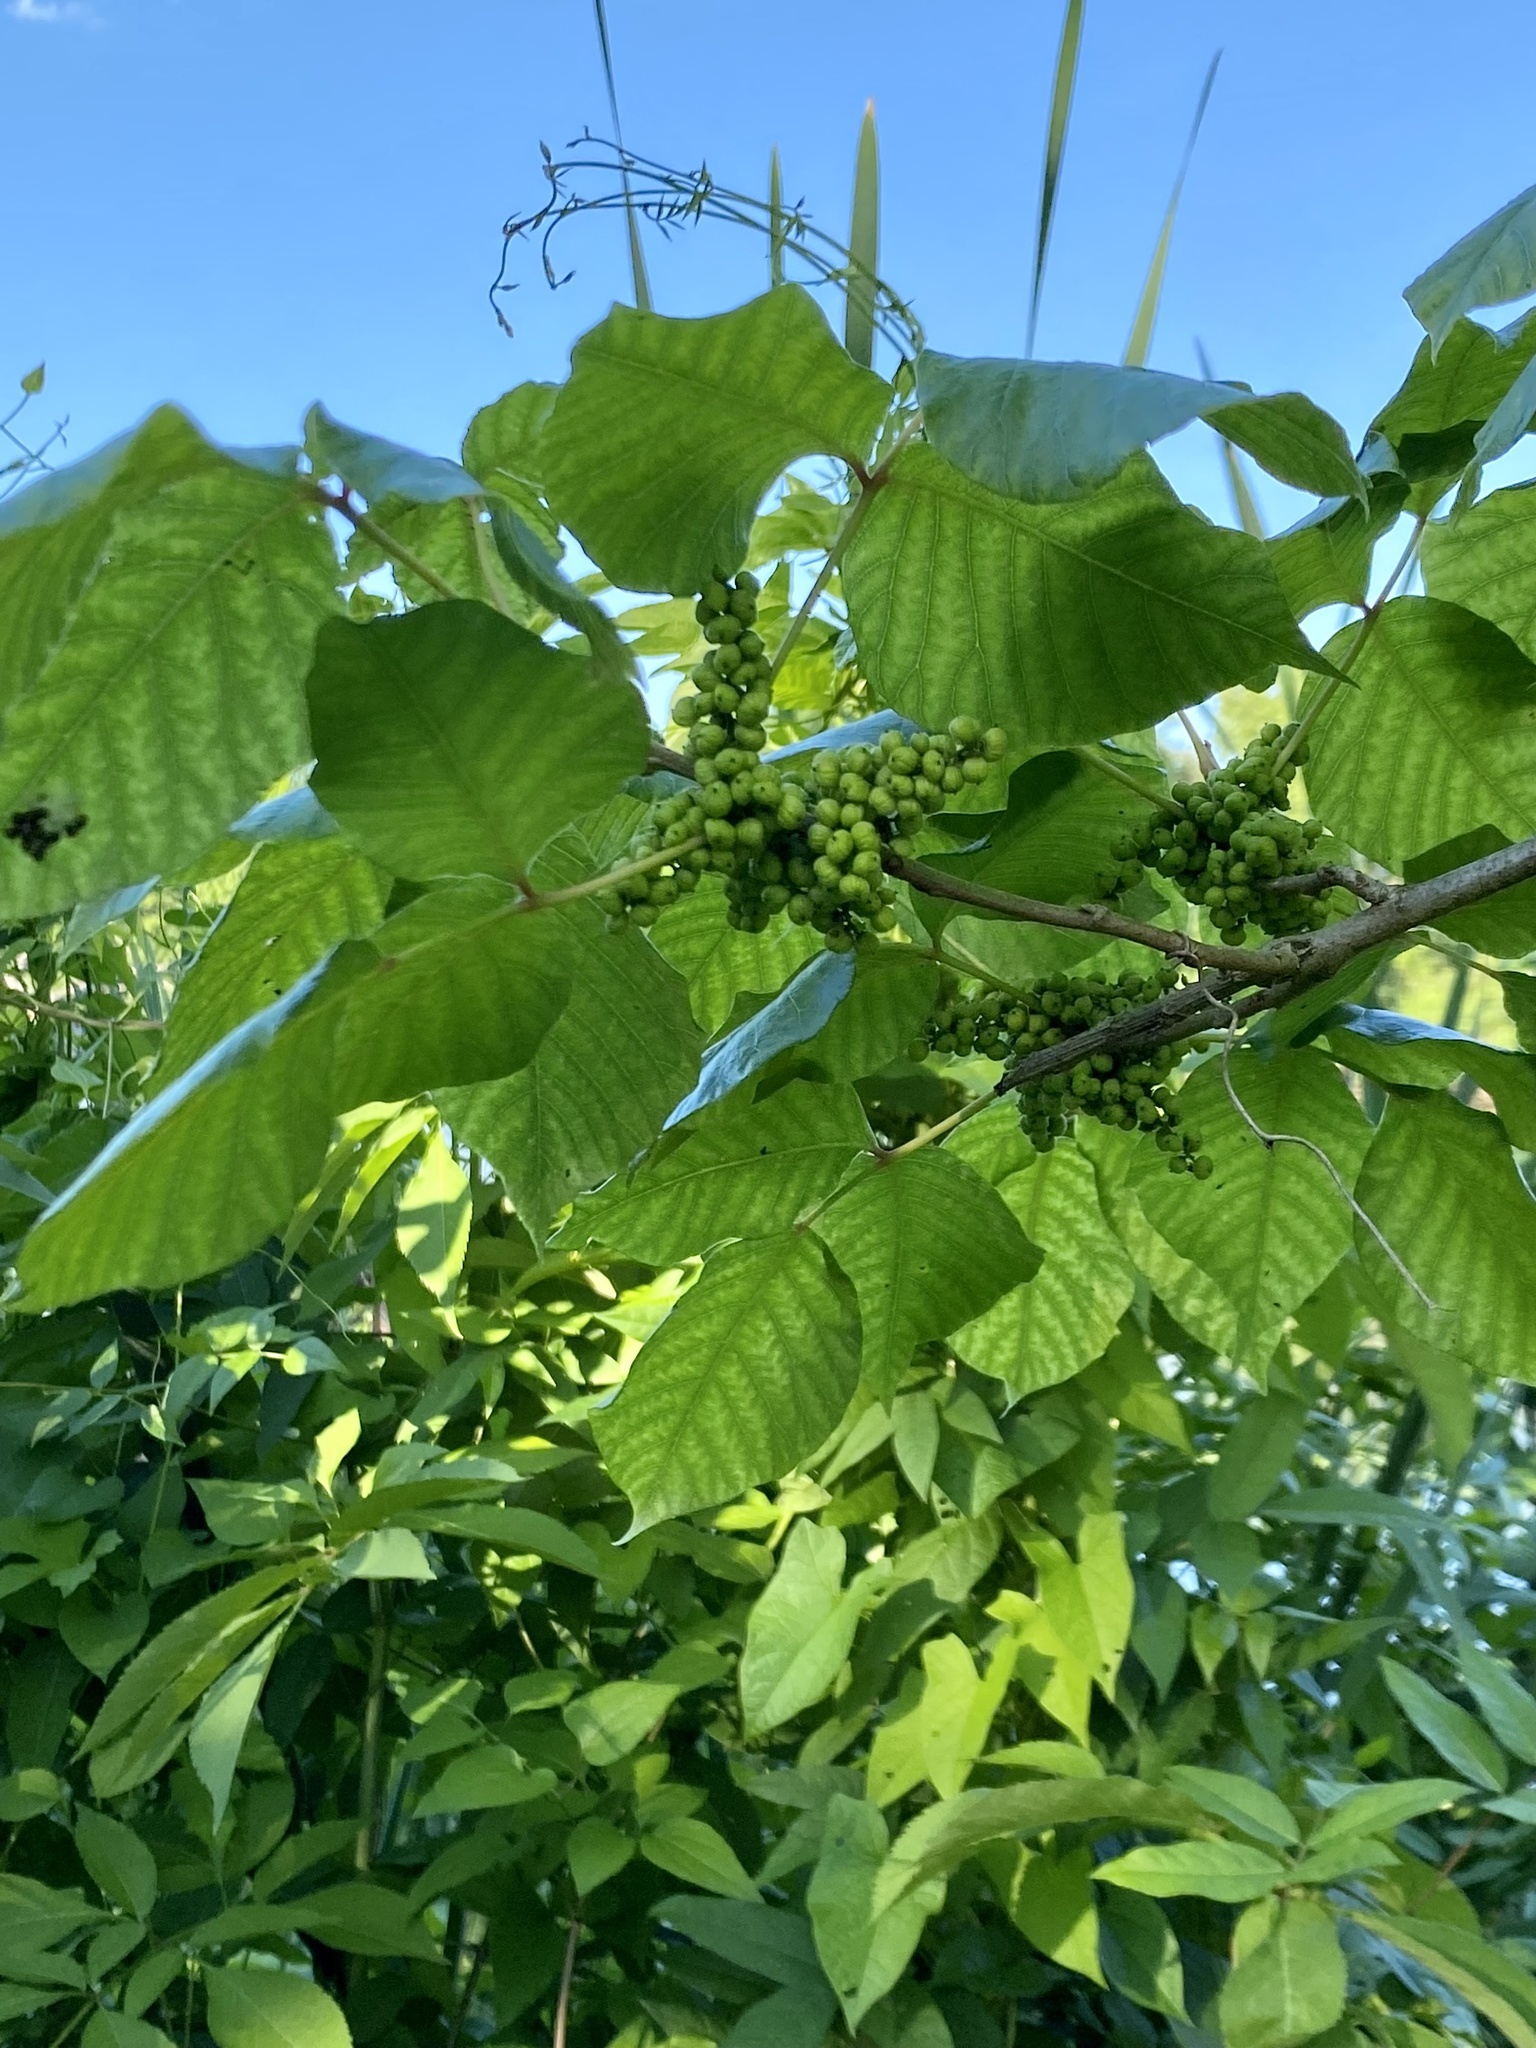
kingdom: Plantae
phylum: Tracheophyta
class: Magnoliopsida
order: Sapindales
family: Anacardiaceae
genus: Toxicodendron
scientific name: Toxicodendron radicans
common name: Poison ivy
